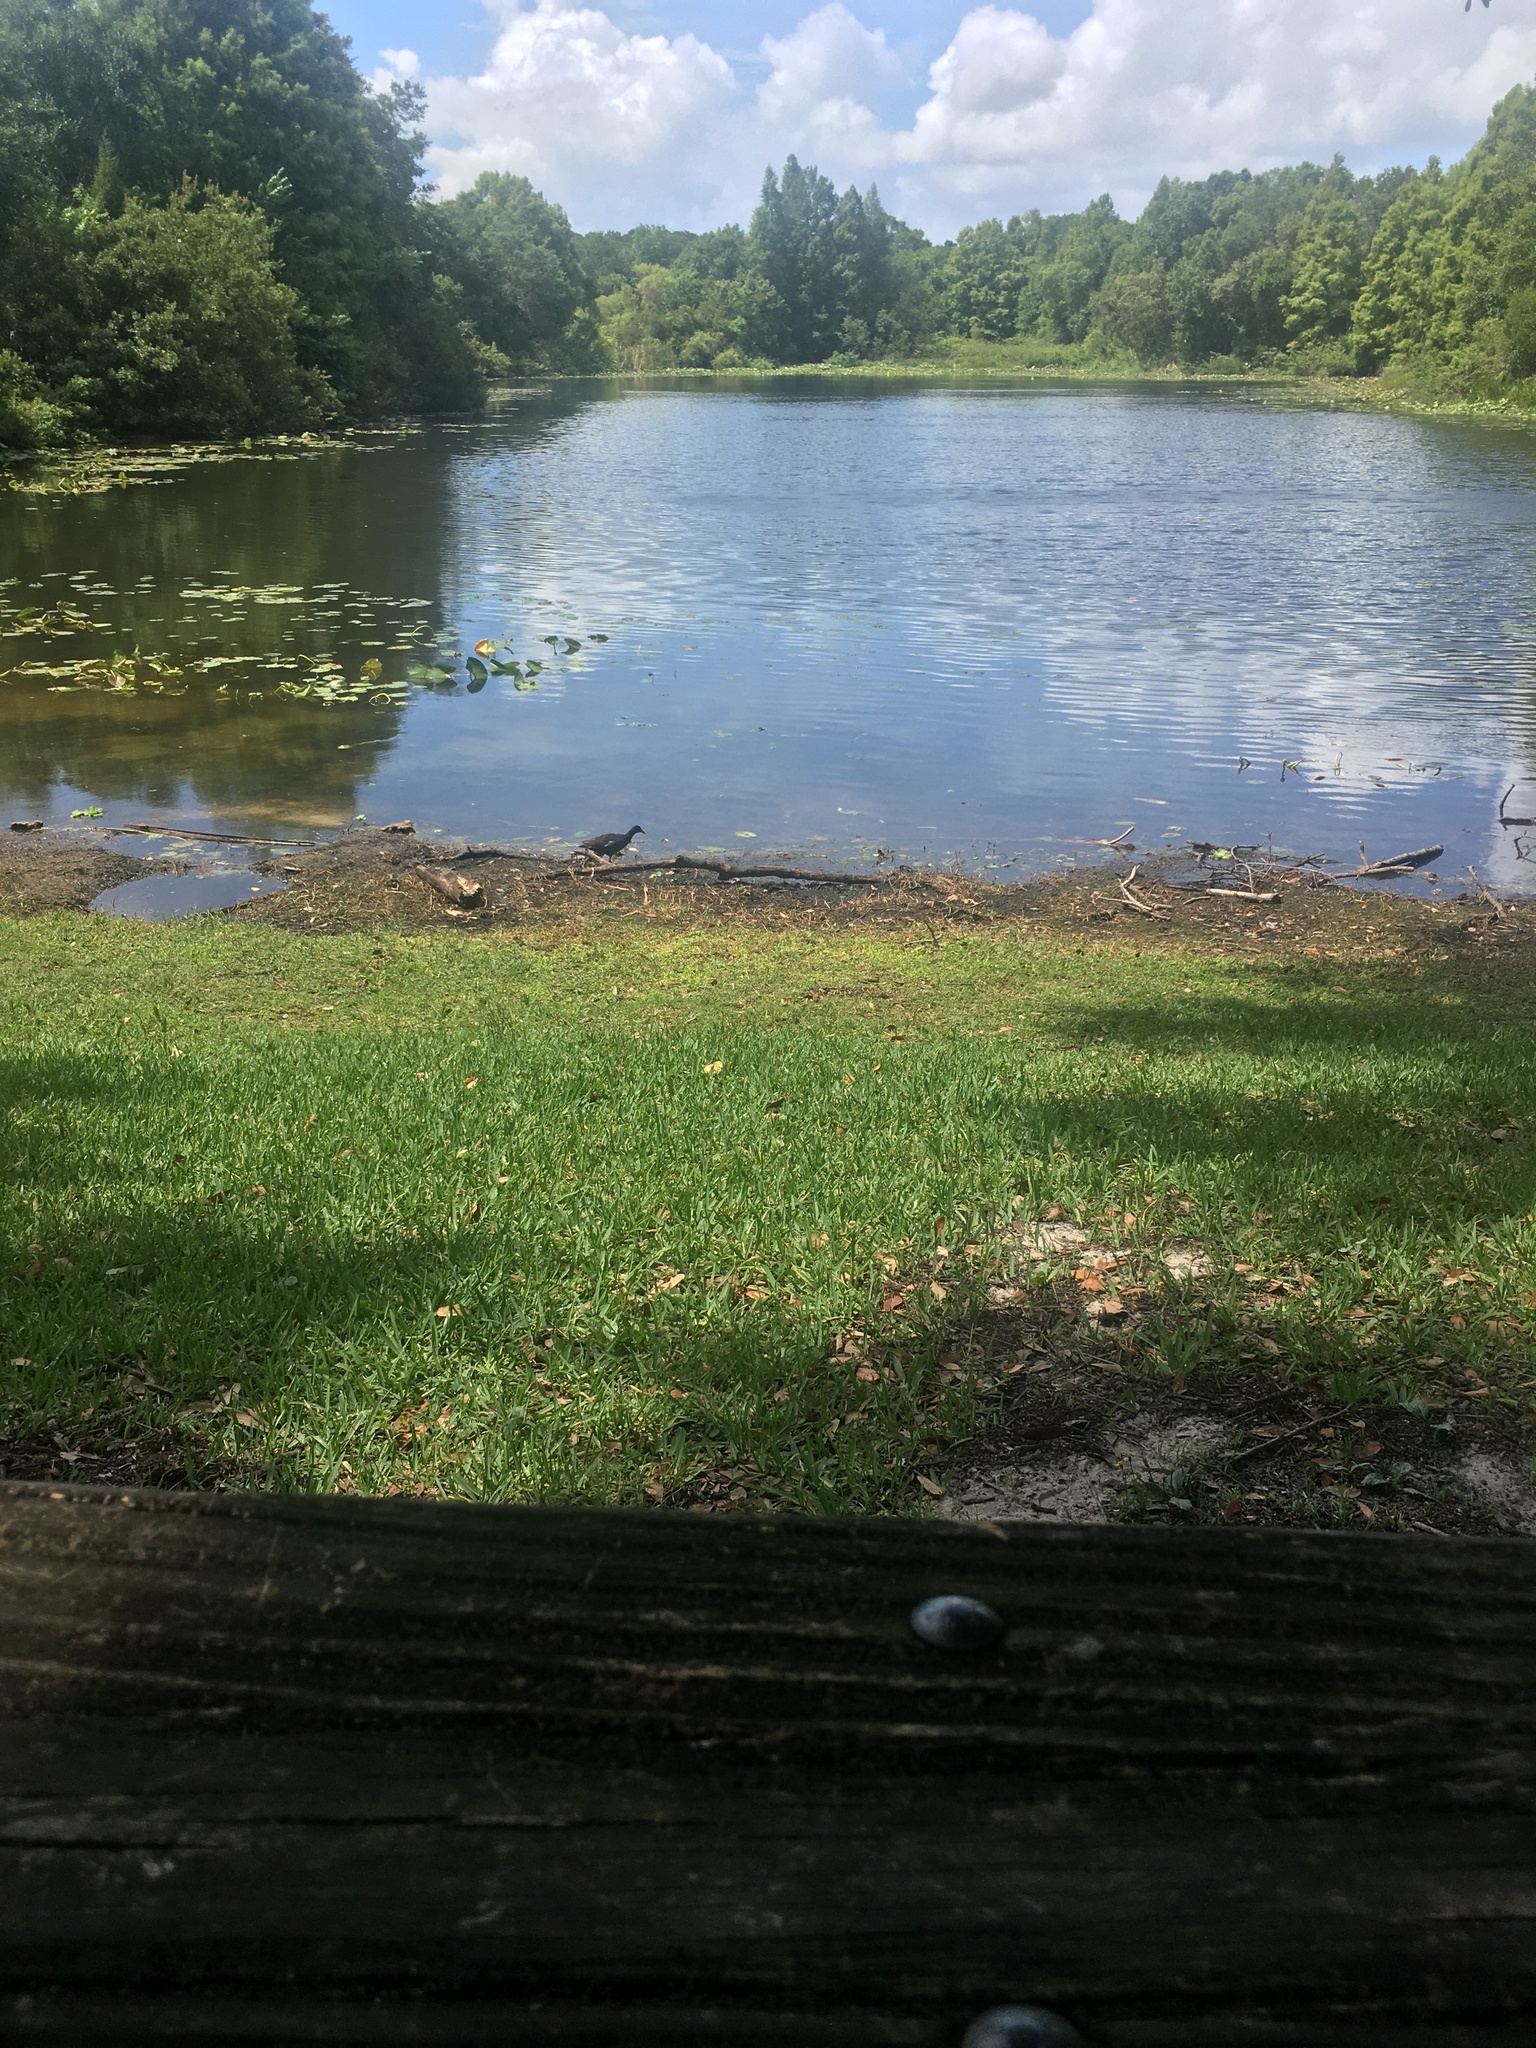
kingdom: Animalia
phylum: Chordata
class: Aves
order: Gruiformes
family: Rallidae
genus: Gallinula
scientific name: Gallinula chloropus
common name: Common moorhen
